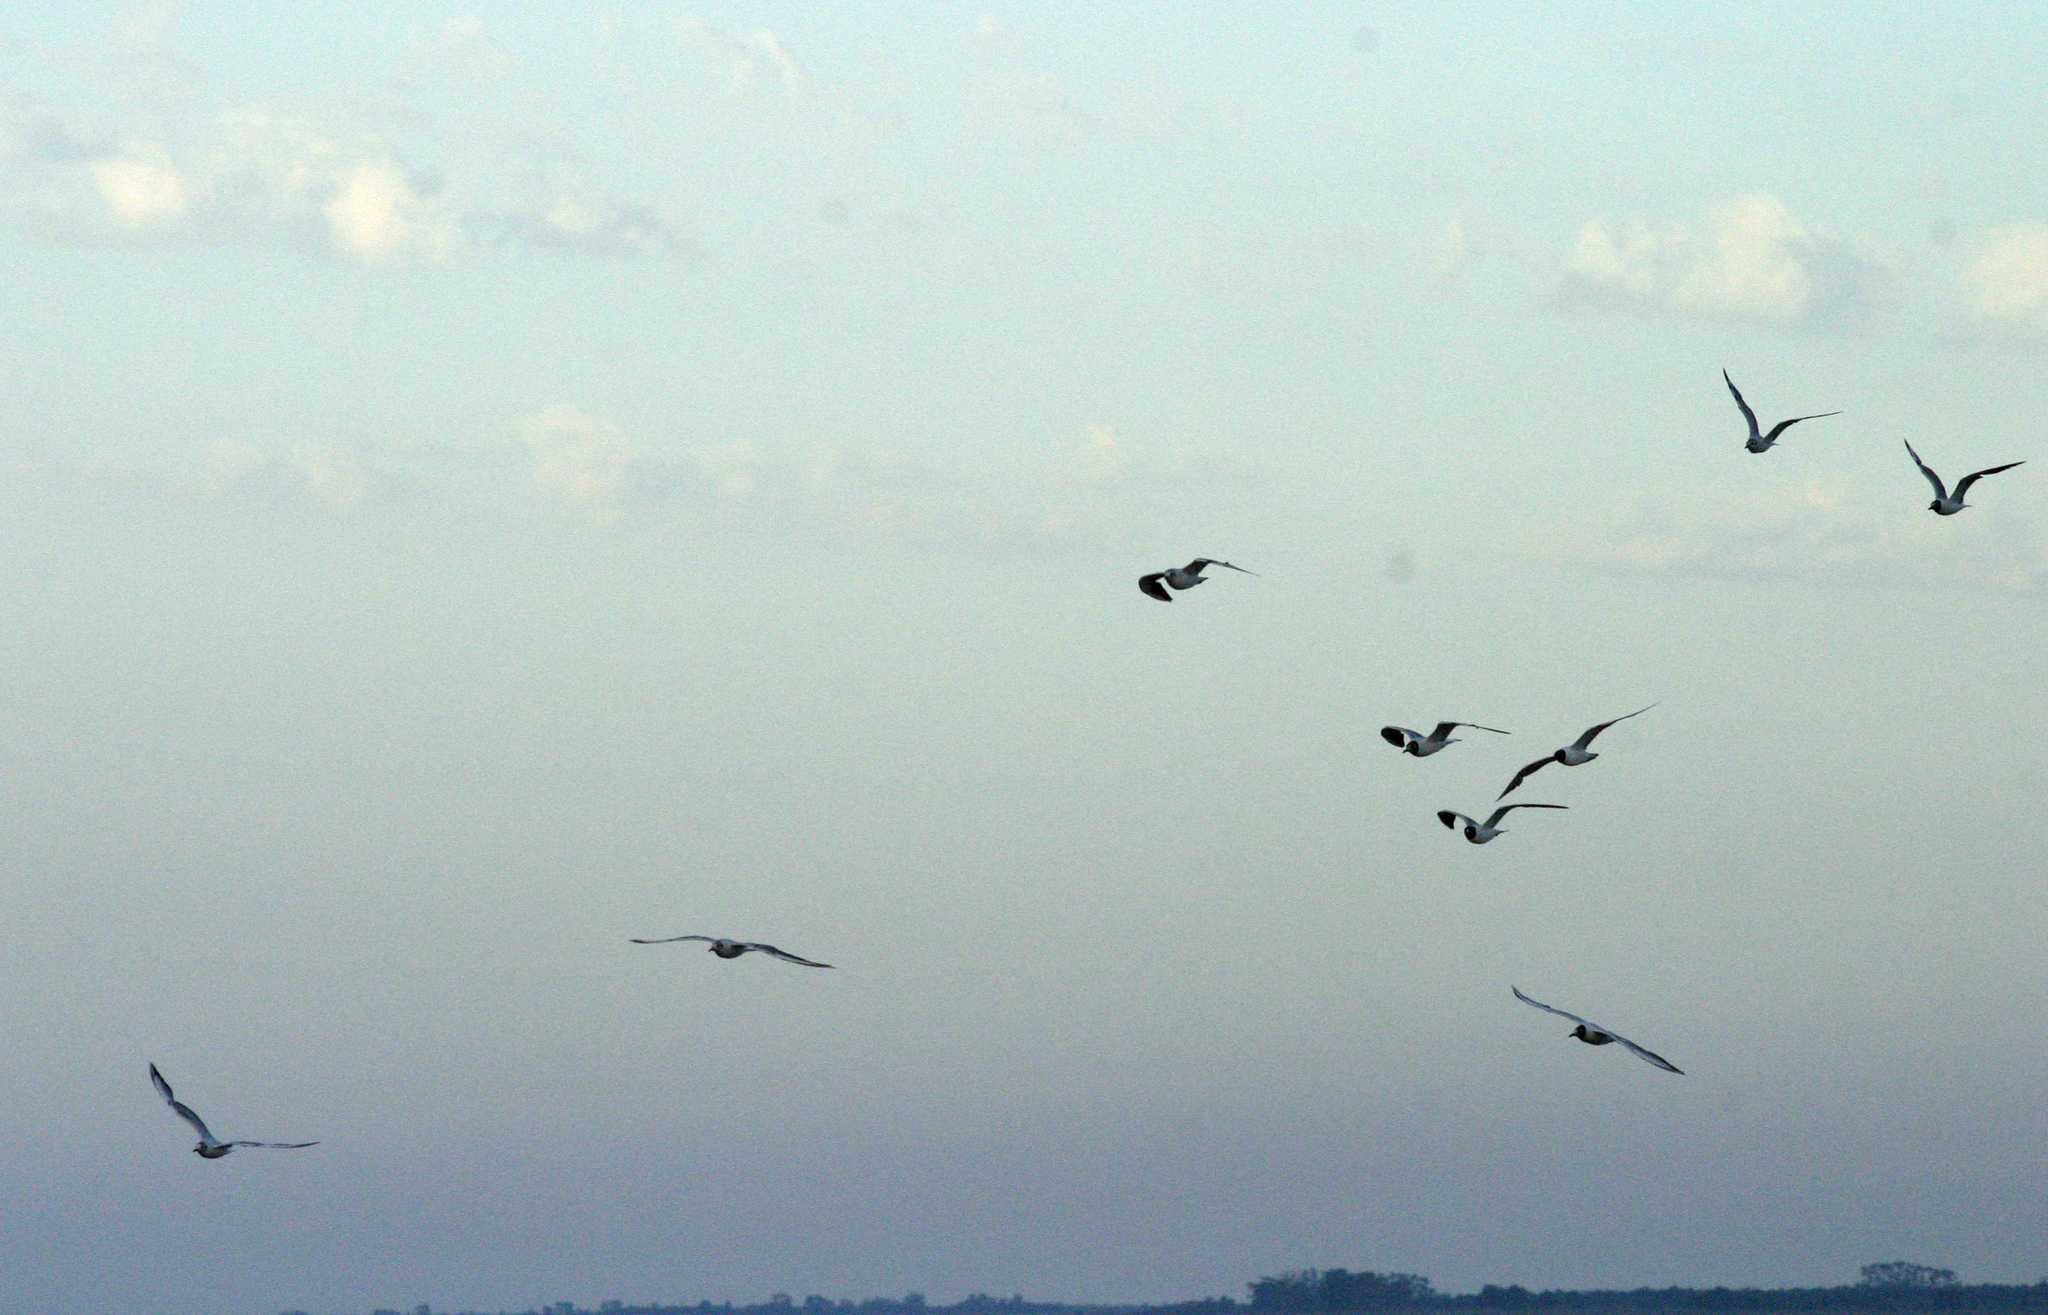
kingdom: Animalia
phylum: Chordata
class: Aves
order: Charadriiformes
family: Laridae
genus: Chroicocephalus
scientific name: Chroicocephalus ridibundus
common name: Black-headed gull
